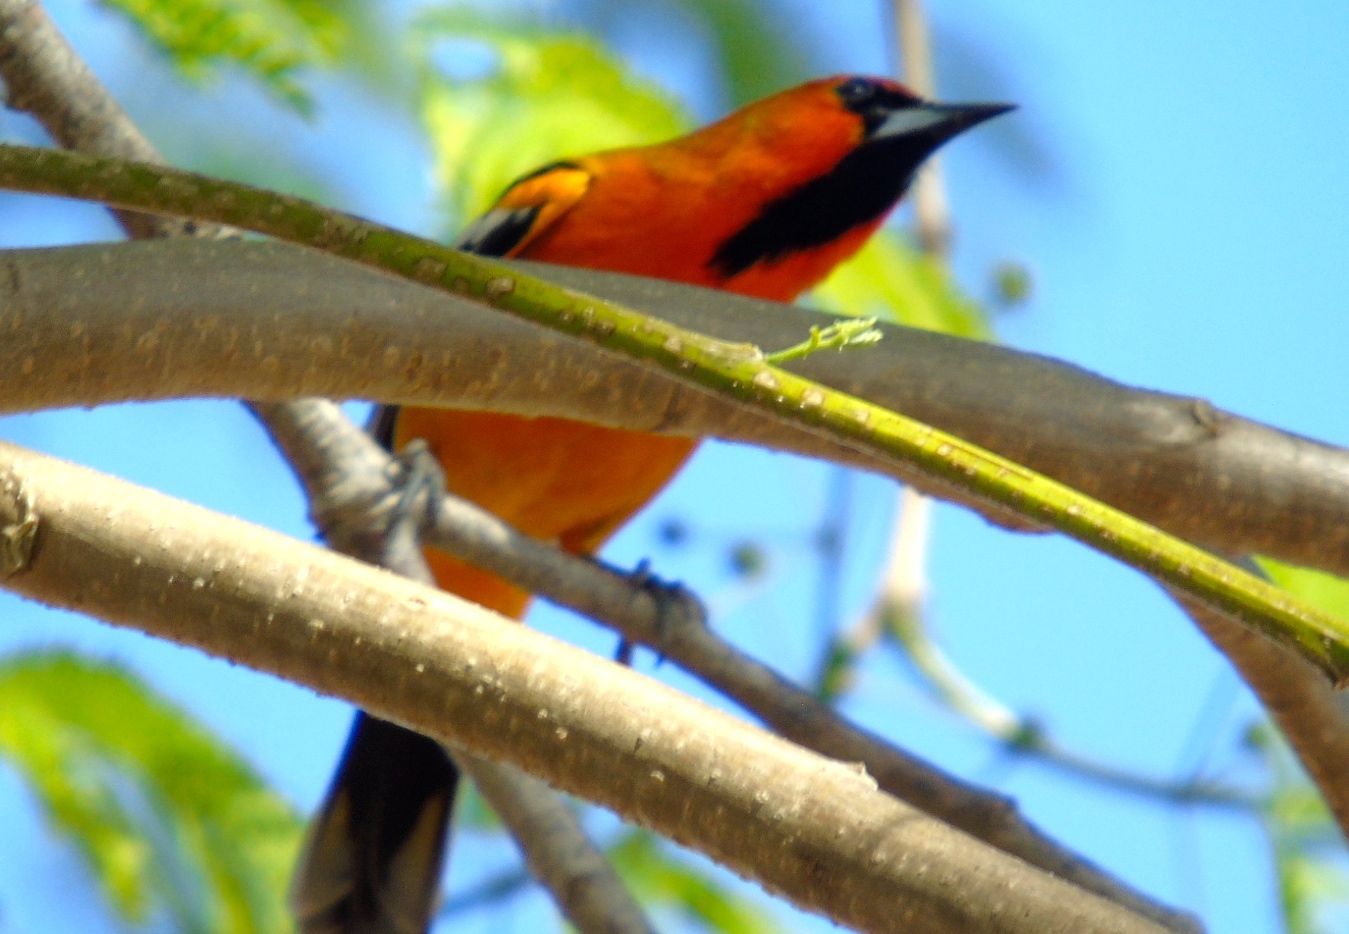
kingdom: Animalia
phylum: Chordata
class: Aves
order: Passeriformes
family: Icteridae
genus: Icterus
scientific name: Icterus pustulatus
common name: Streak-backed oriole
